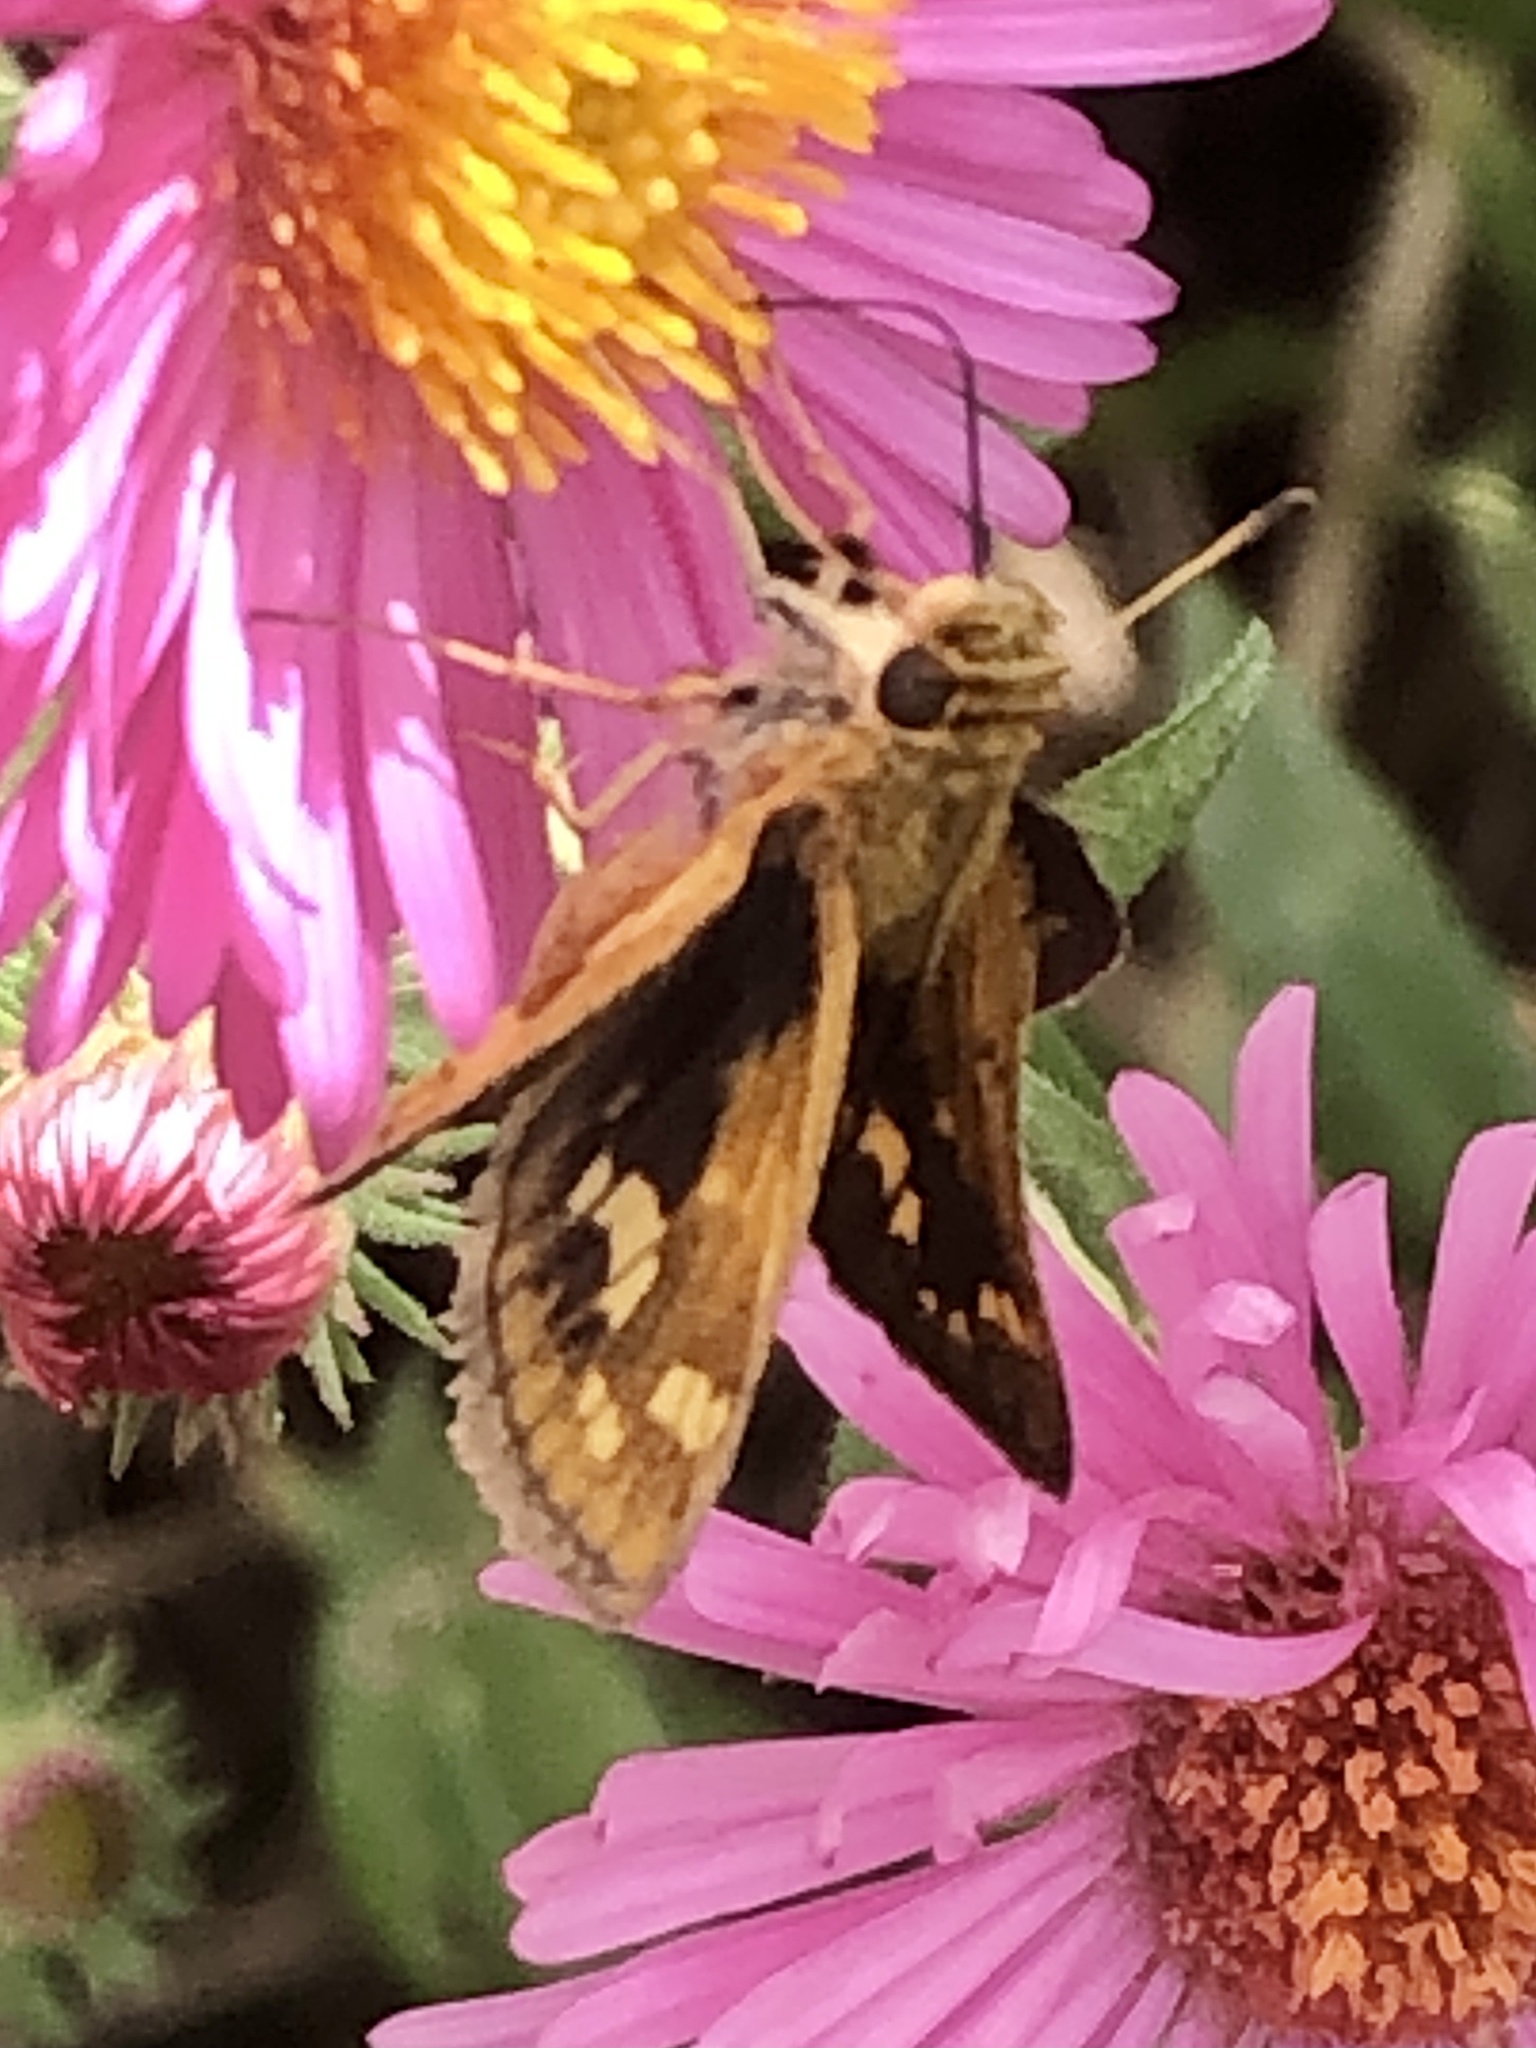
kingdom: Animalia
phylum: Arthropoda
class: Insecta
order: Lepidoptera
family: Hesperiidae
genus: Polites
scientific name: Polites coras
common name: Peck's skipper
